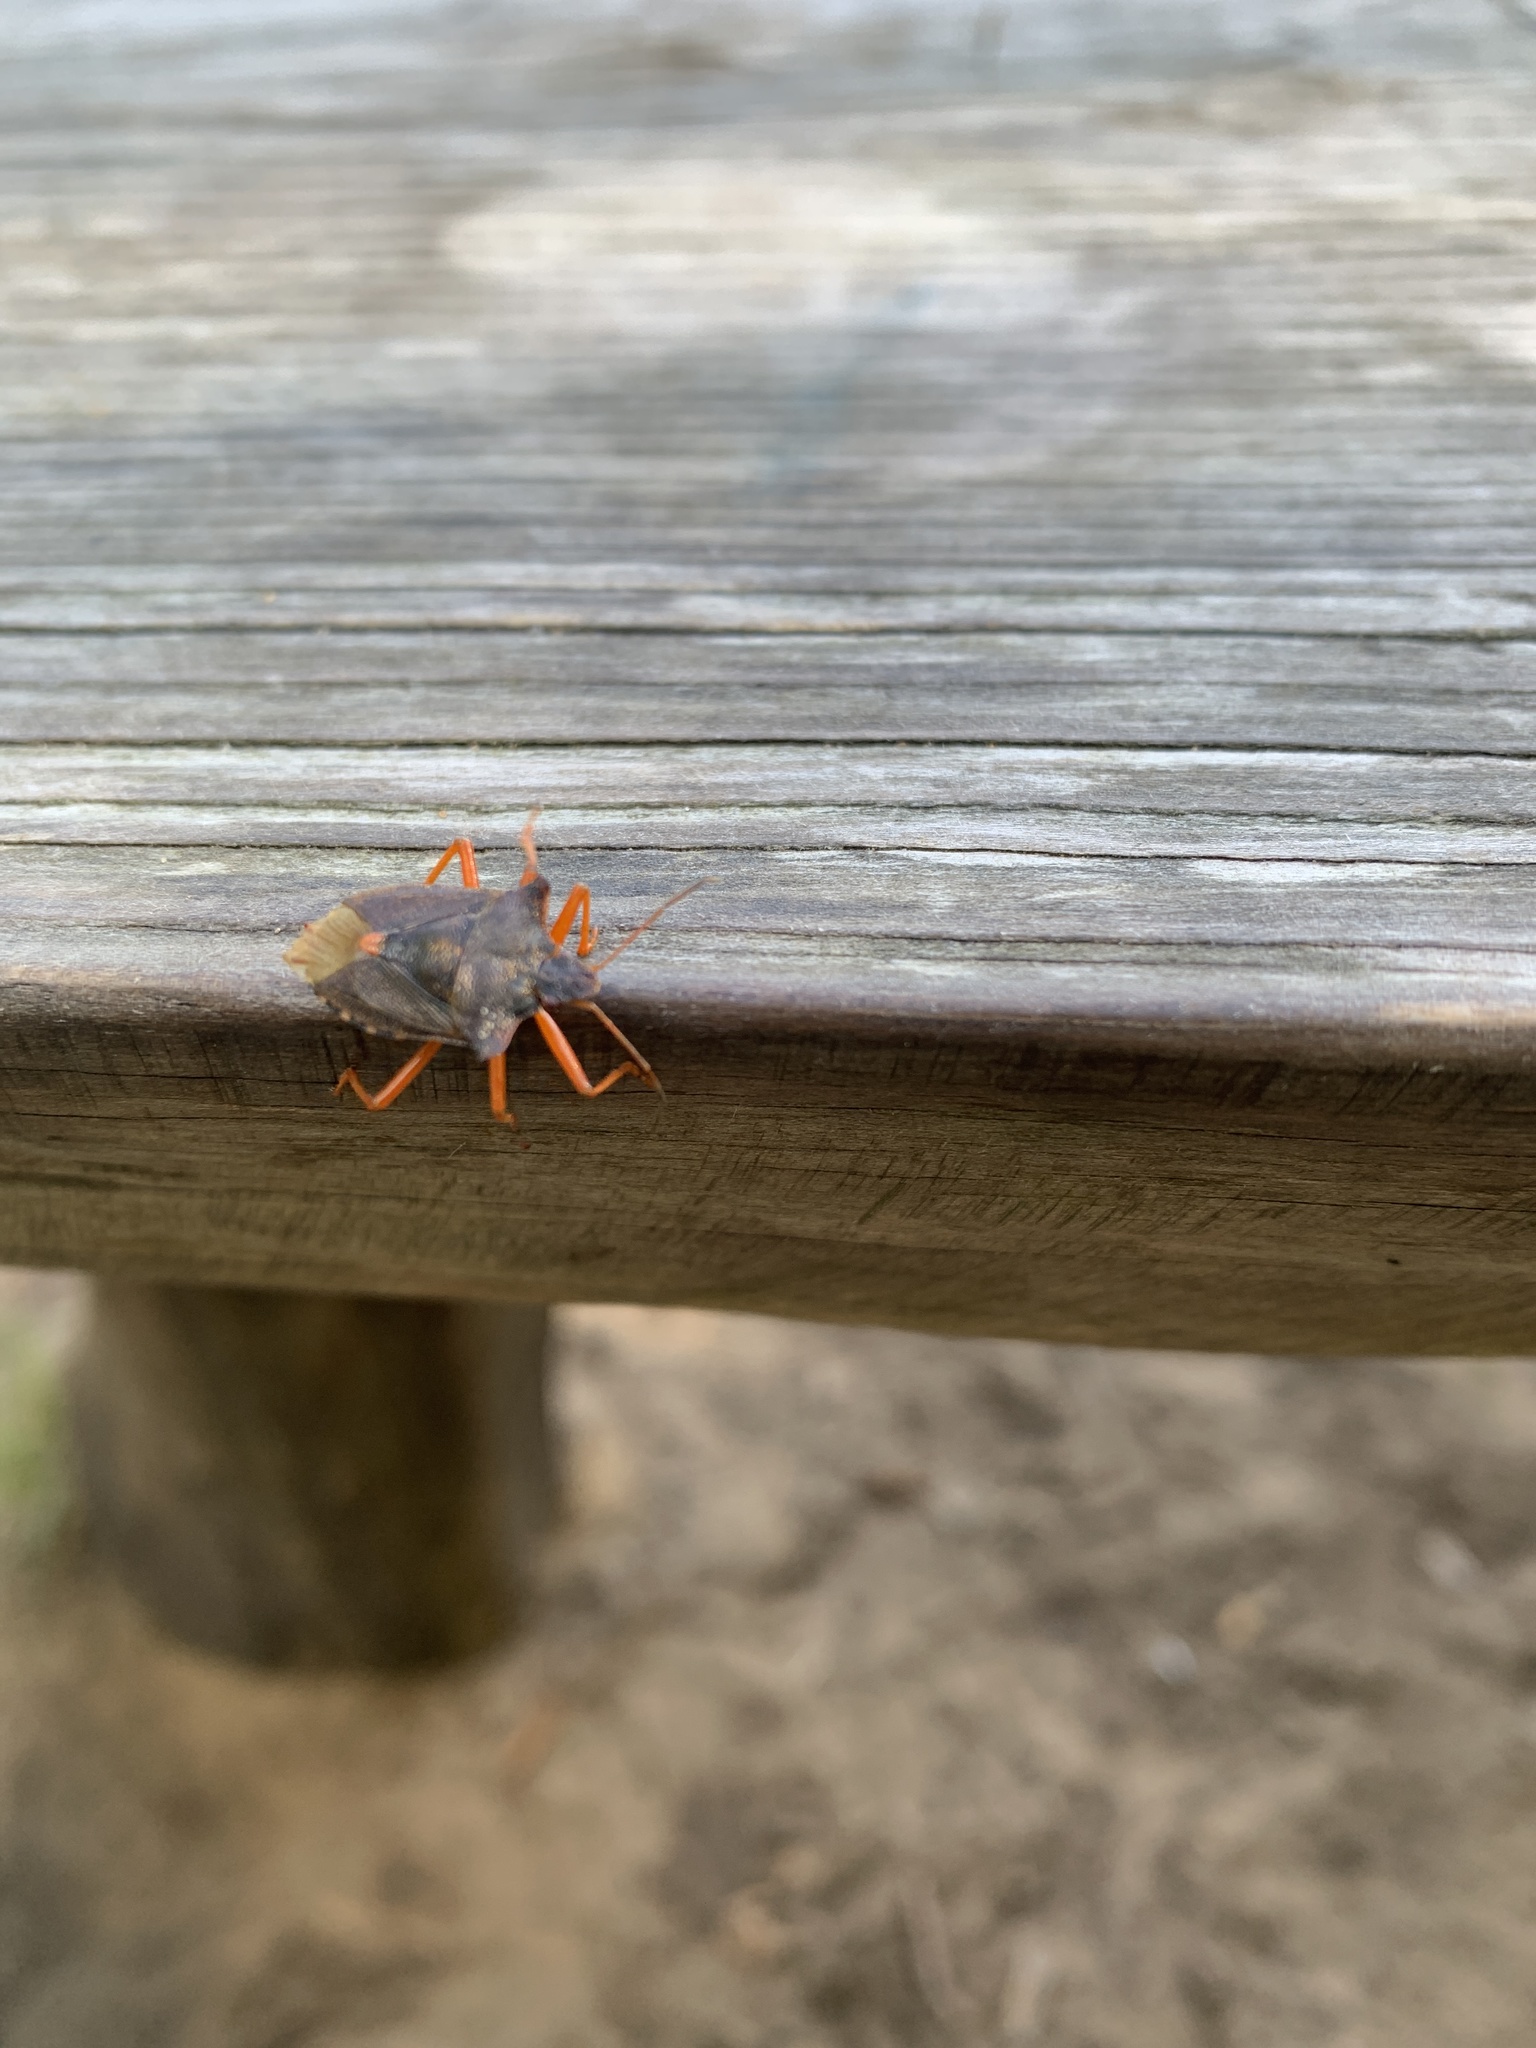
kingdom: Animalia
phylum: Arthropoda
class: Insecta
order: Hemiptera
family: Pentatomidae
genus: Pentatoma
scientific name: Pentatoma rufipes
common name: Forest bug
